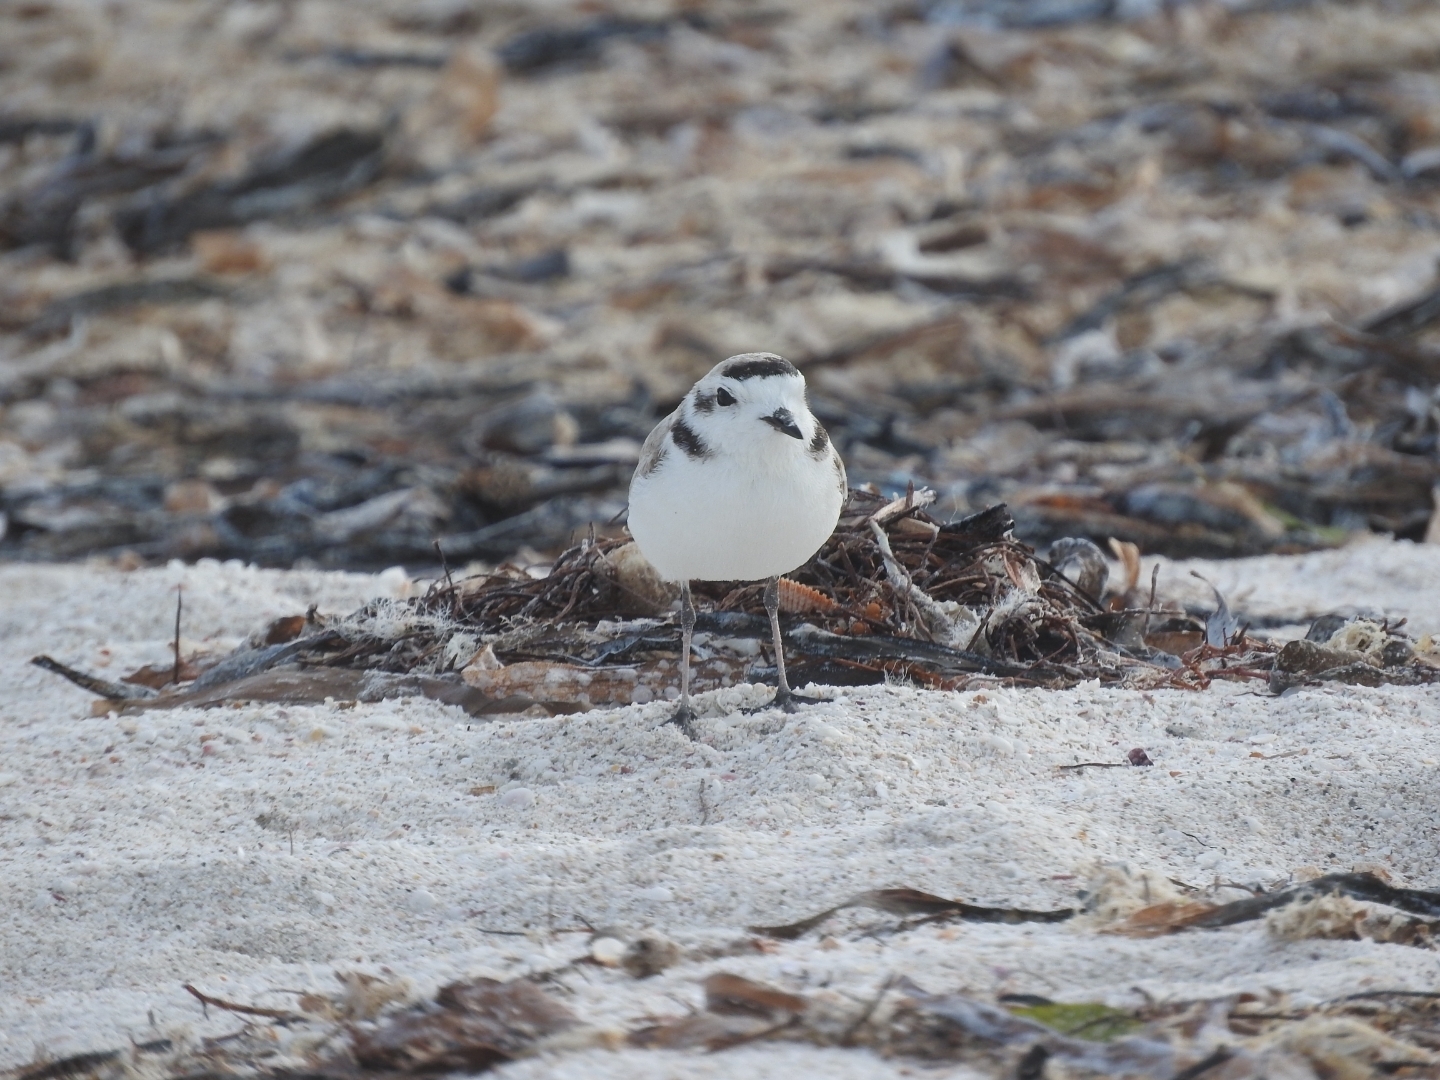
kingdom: Animalia
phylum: Chordata
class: Aves
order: Charadriiformes
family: Charadriidae
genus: Anarhynchus
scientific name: Anarhynchus
